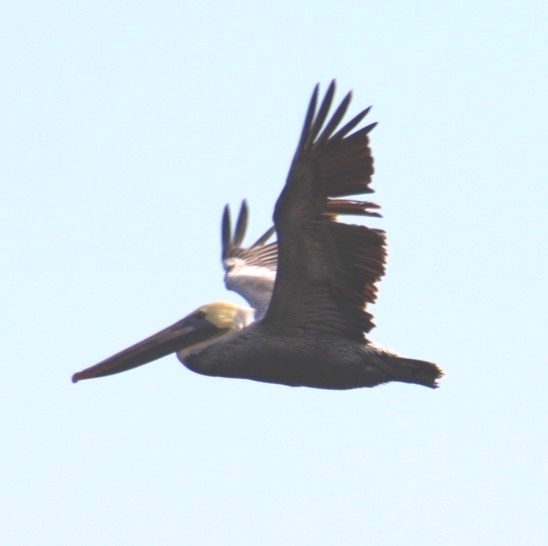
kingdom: Animalia
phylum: Chordata
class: Aves
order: Pelecaniformes
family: Pelecanidae
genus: Pelecanus
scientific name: Pelecanus occidentalis
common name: Brown pelican
